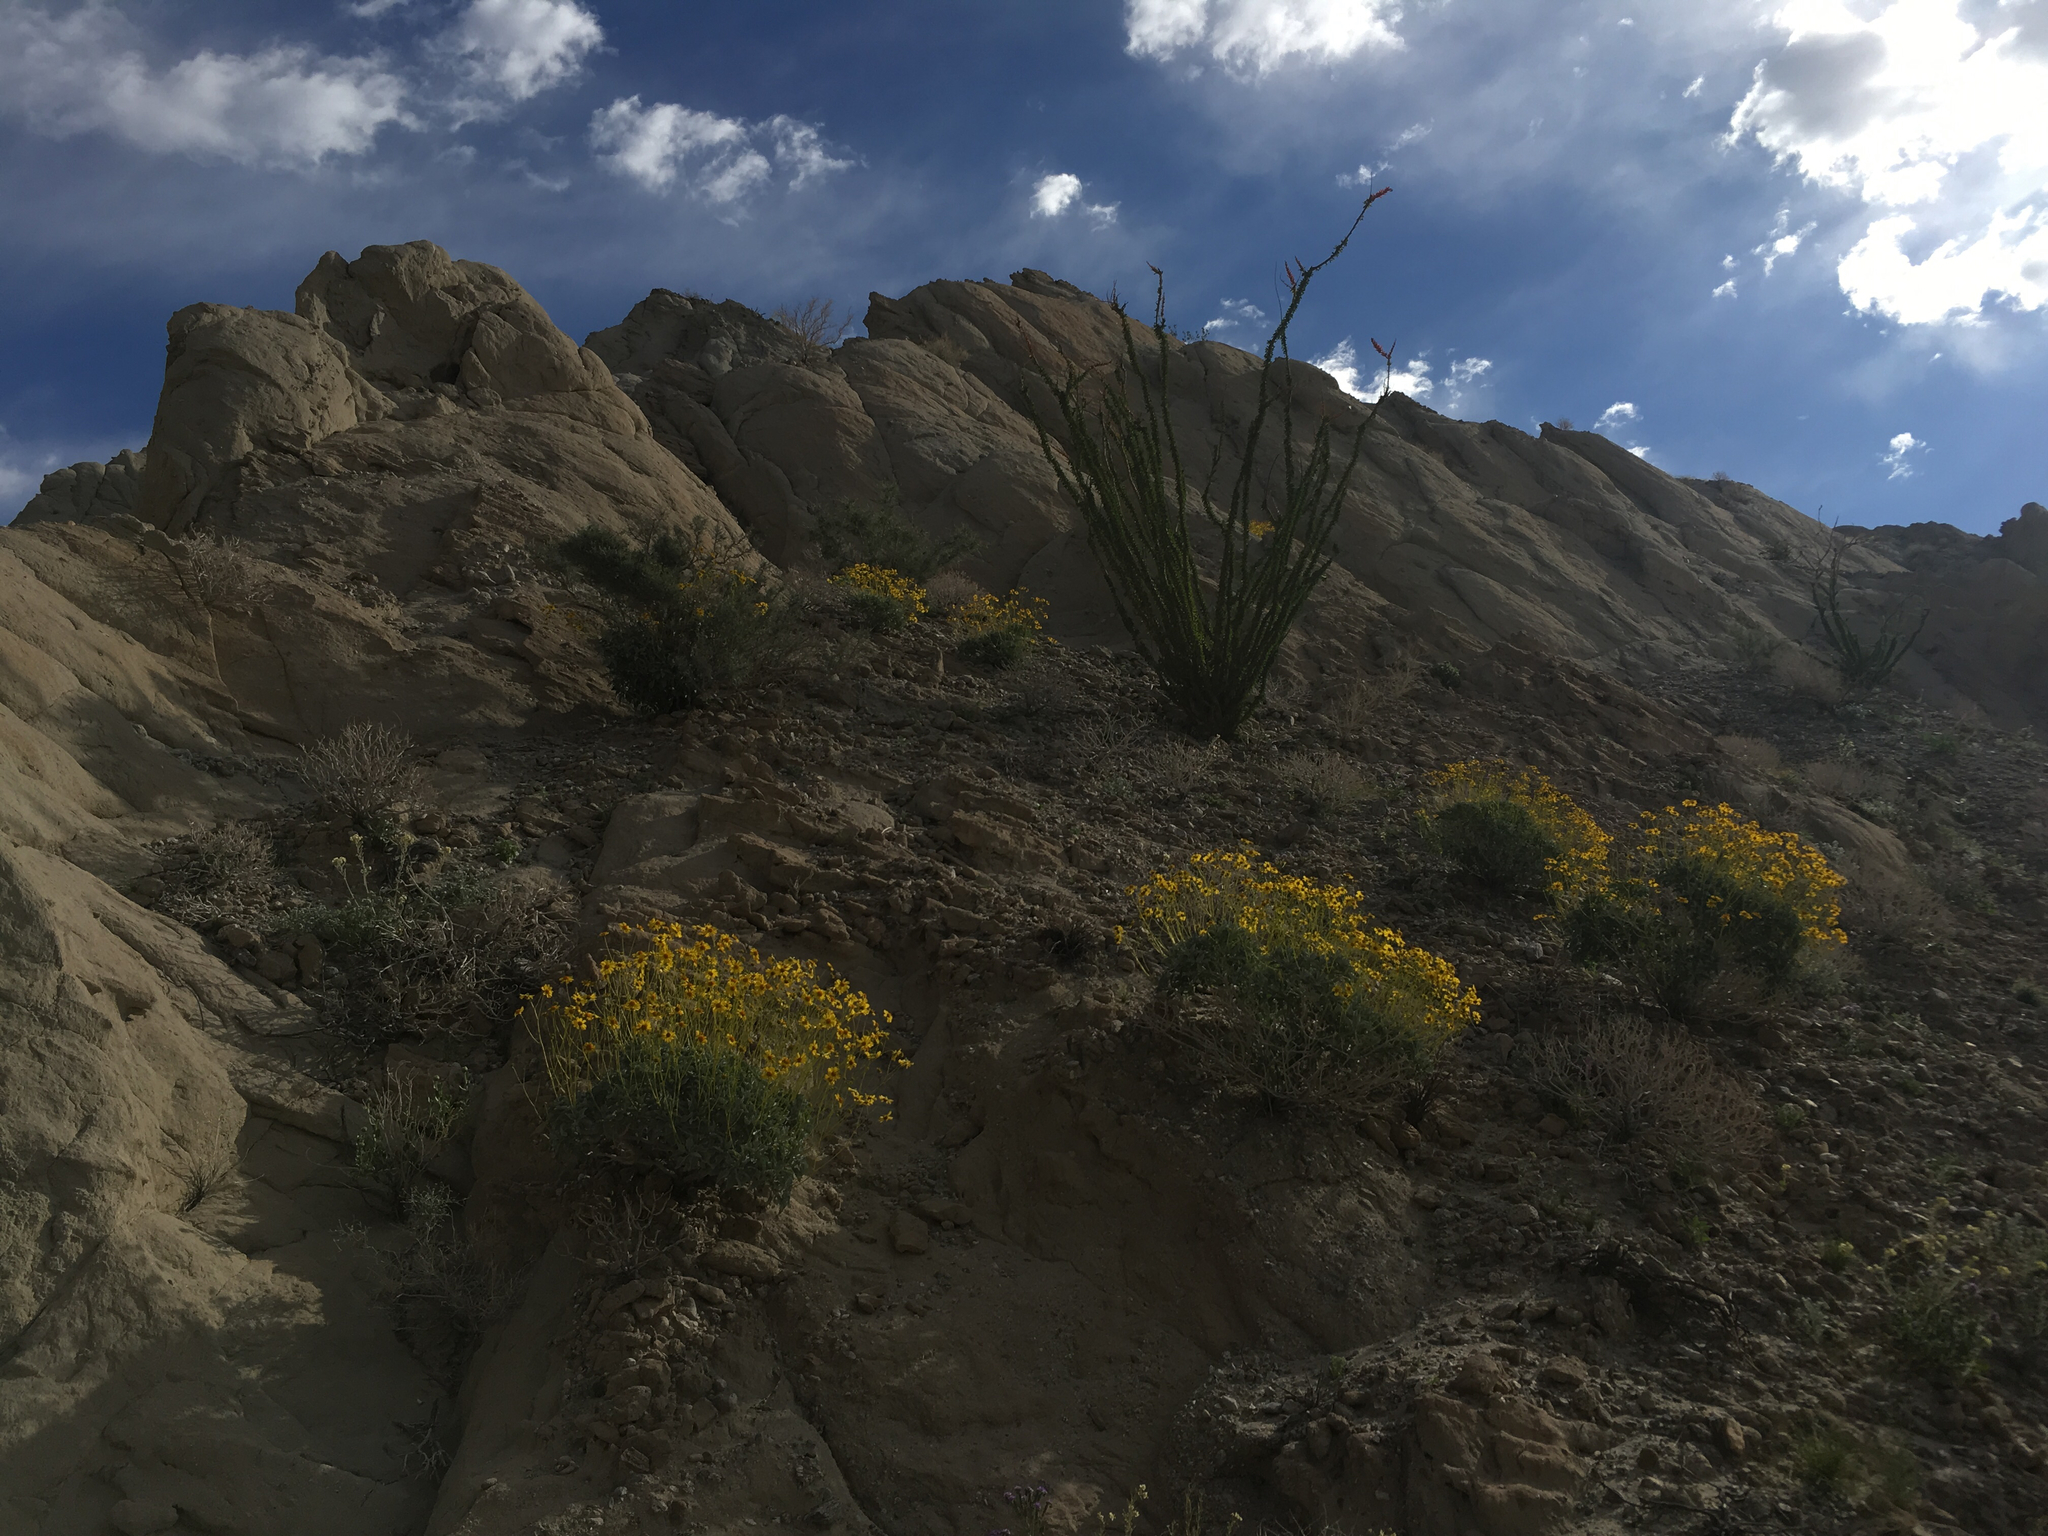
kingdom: Plantae
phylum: Tracheophyta
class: Magnoliopsida
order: Asterales
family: Asteraceae
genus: Encelia
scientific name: Encelia farinosa
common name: Brittlebush
